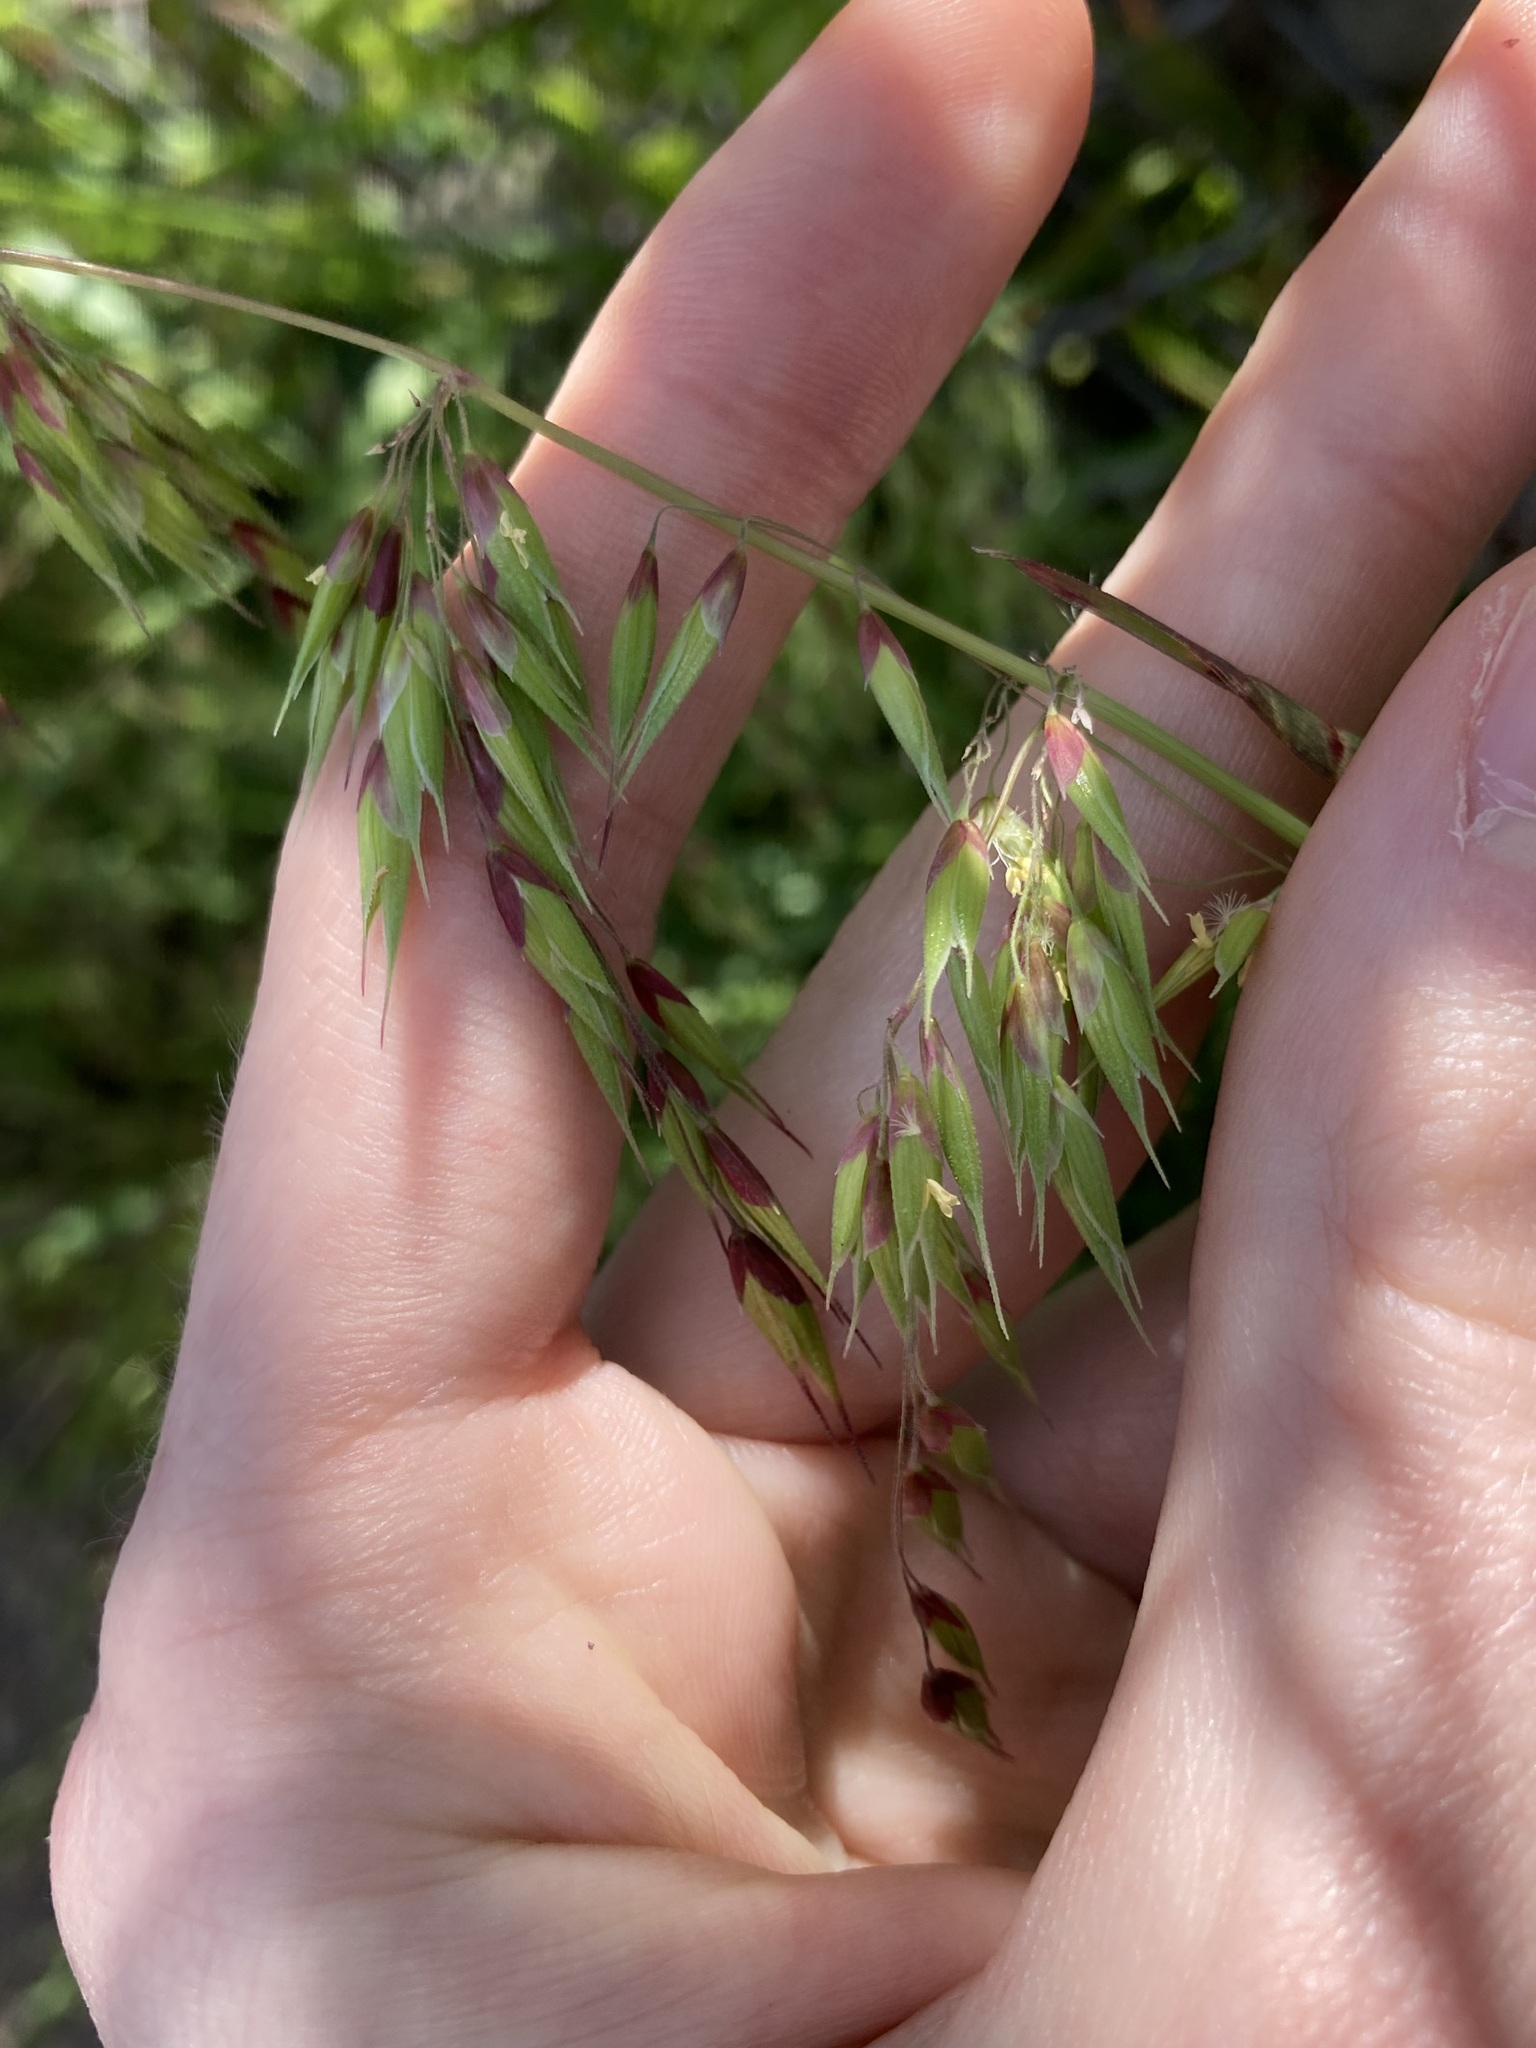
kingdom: Plantae
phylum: Tracheophyta
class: Liliopsida
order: Poales
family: Poaceae
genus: Ehrharta
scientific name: Ehrharta longiflora
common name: Longflowered veldtgrass
